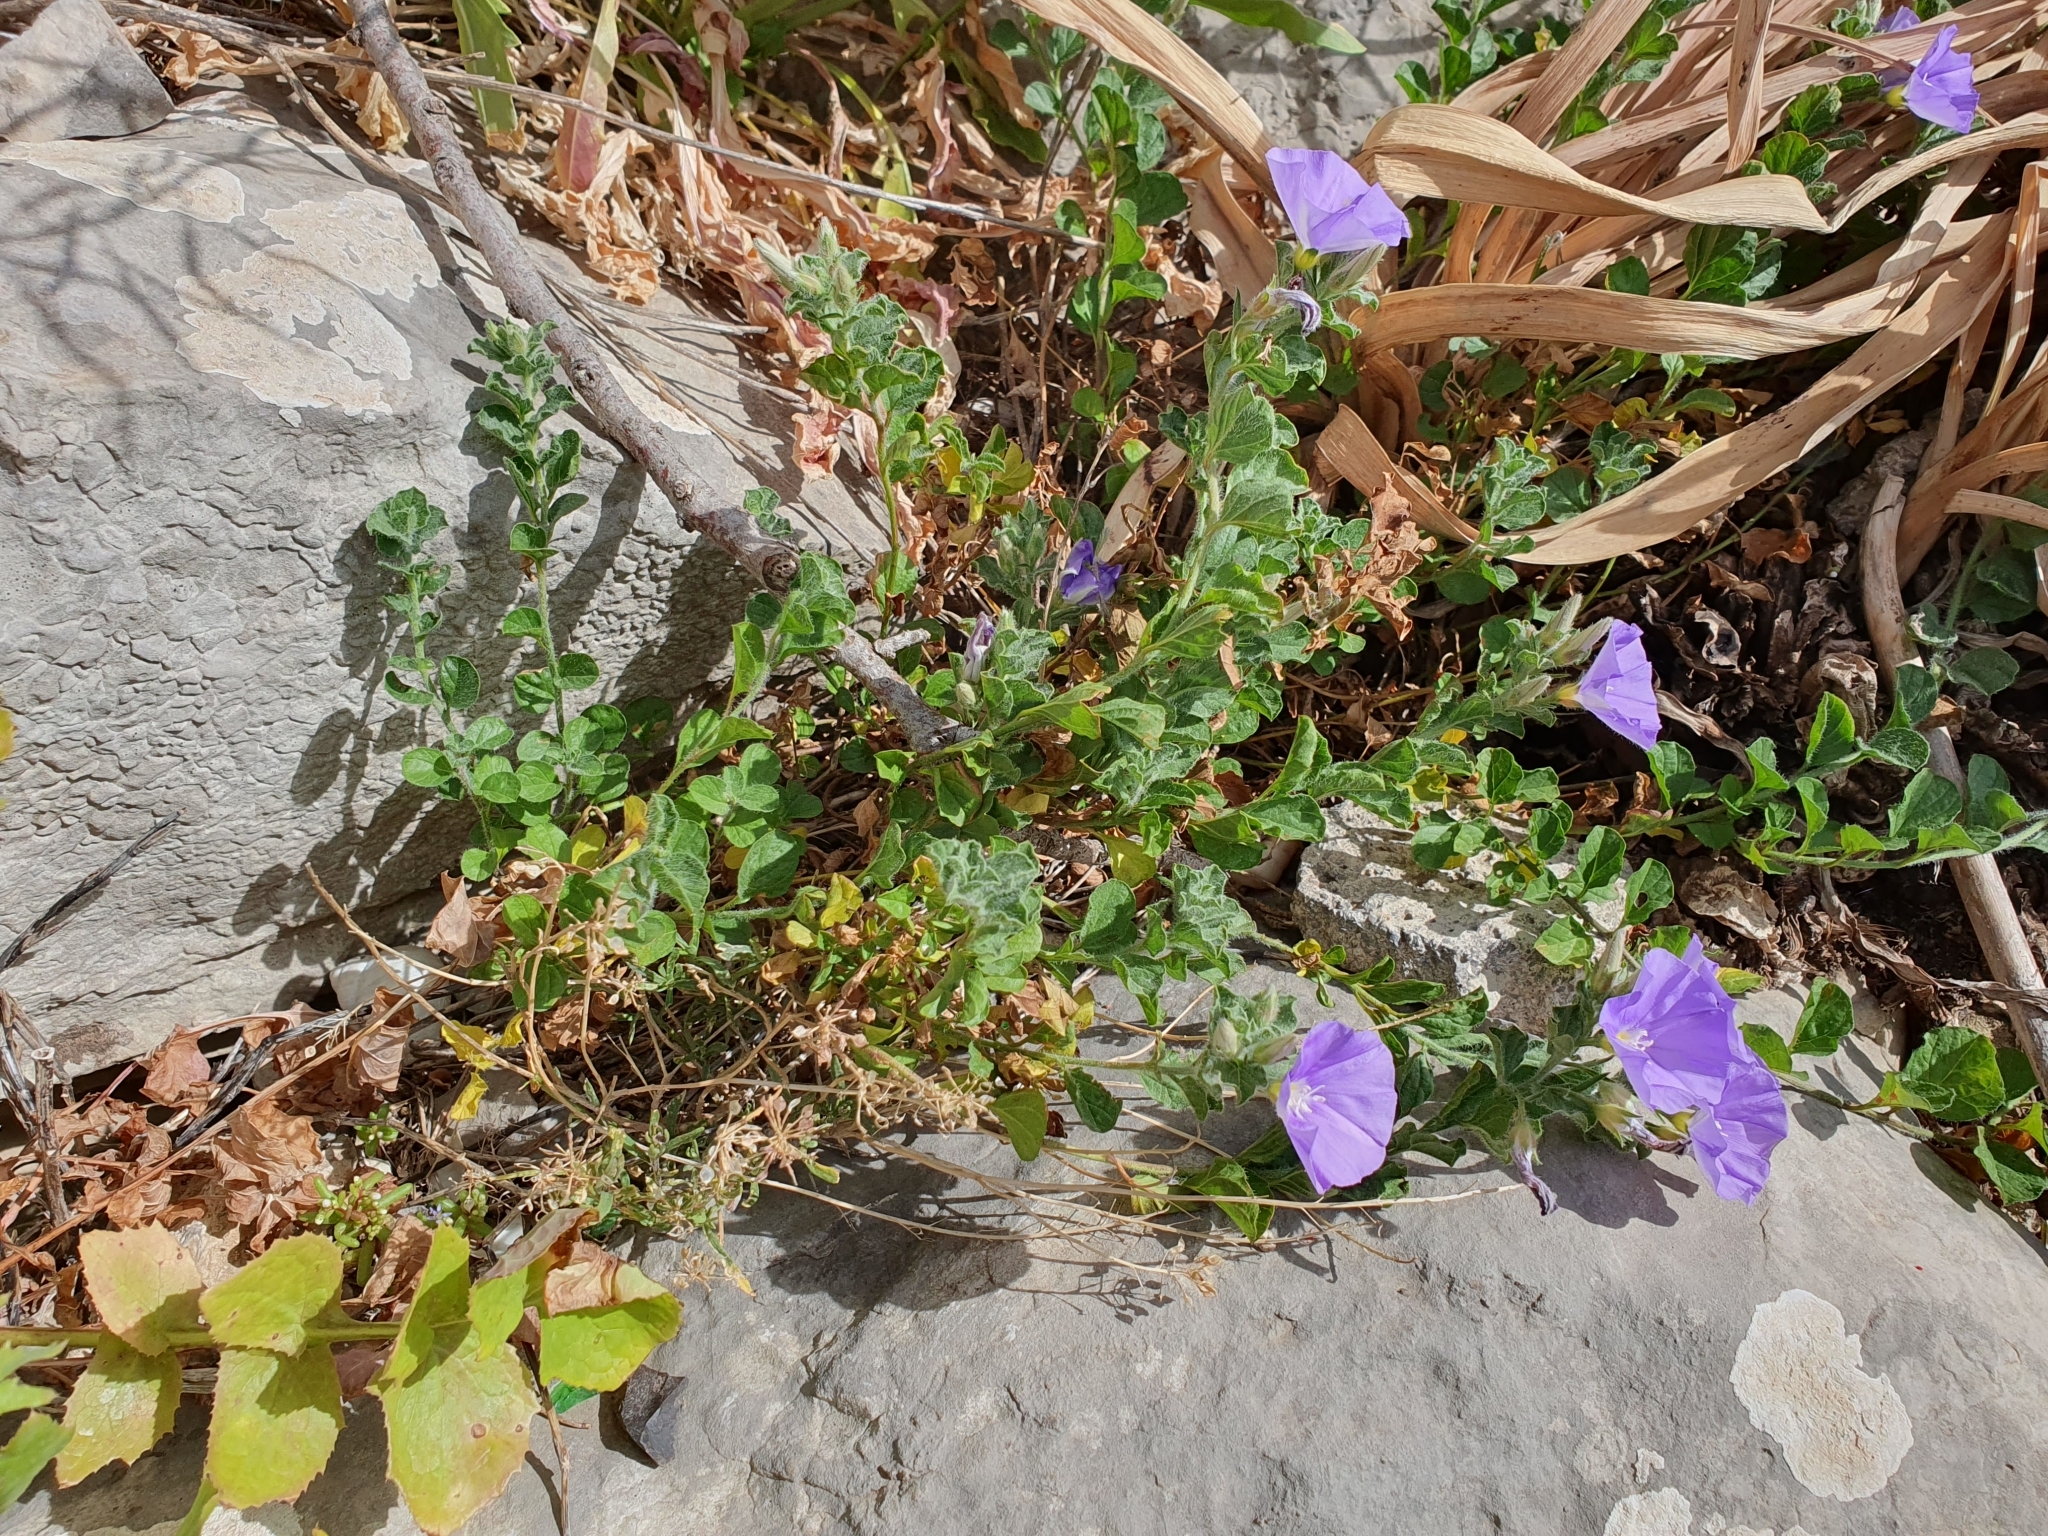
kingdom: Plantae
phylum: Tracheophyta
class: Magnoliopsida
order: Solanales
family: Convolvulaceae
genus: Convolvulus
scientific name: Convolvulus sabatius
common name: Ground blue-convolvulus
